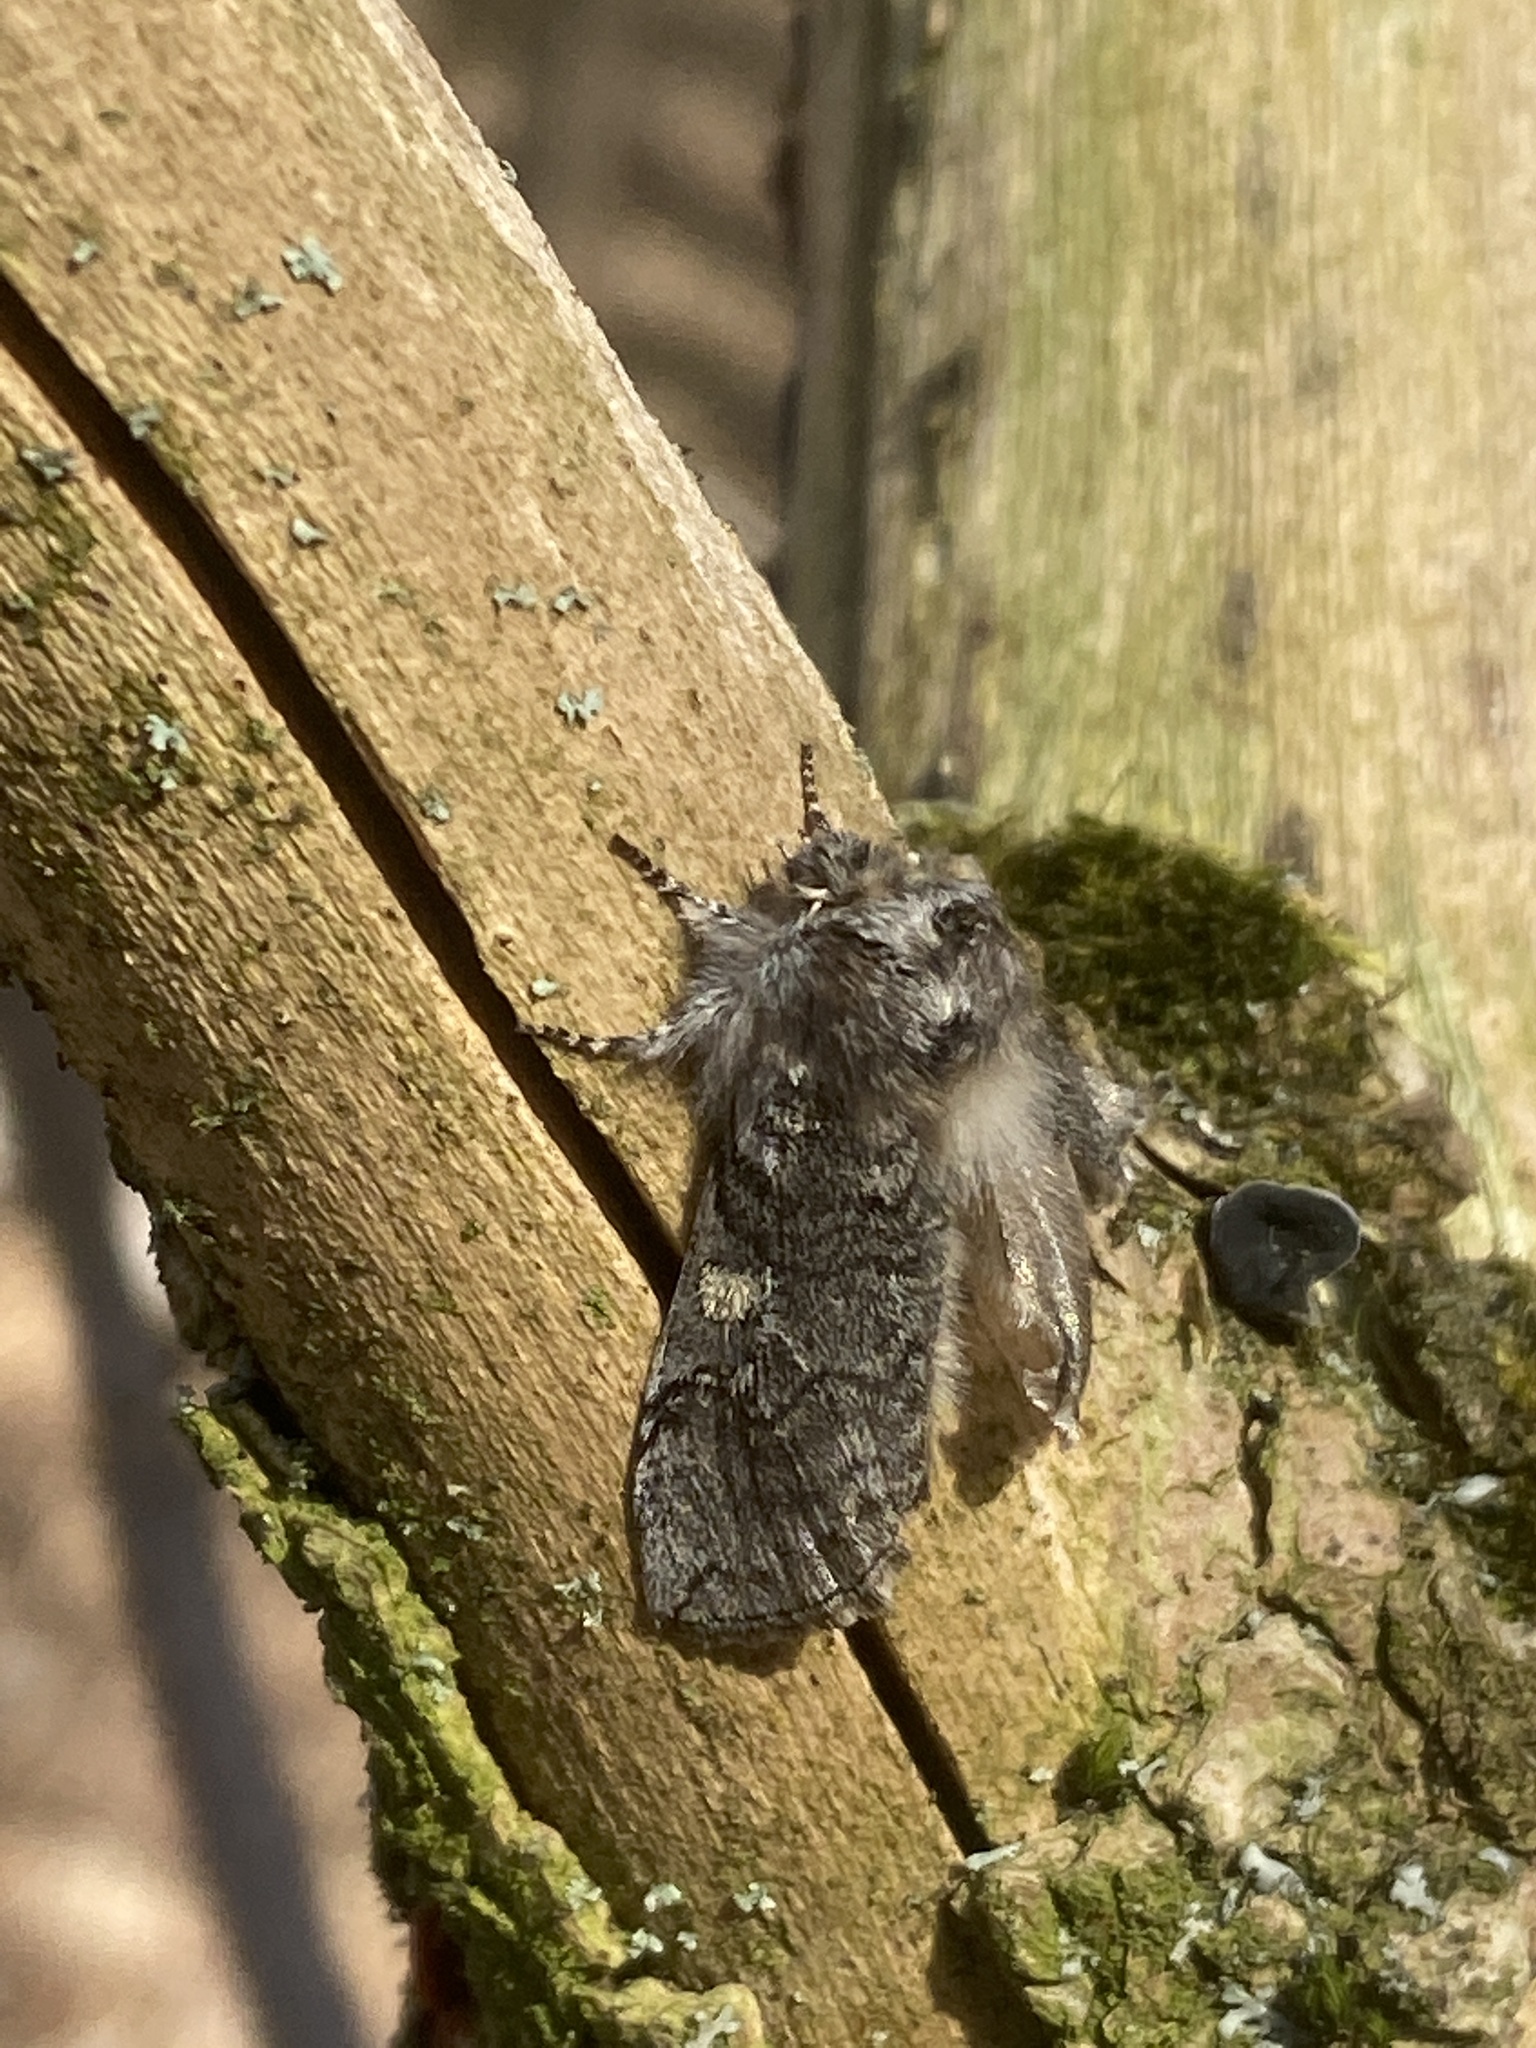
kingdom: Animalia
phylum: Arthropoda
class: Insecta
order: Lepidoptera
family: Drepanidae
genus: Achlya
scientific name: Achlya flavicornis
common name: Yellow horned
